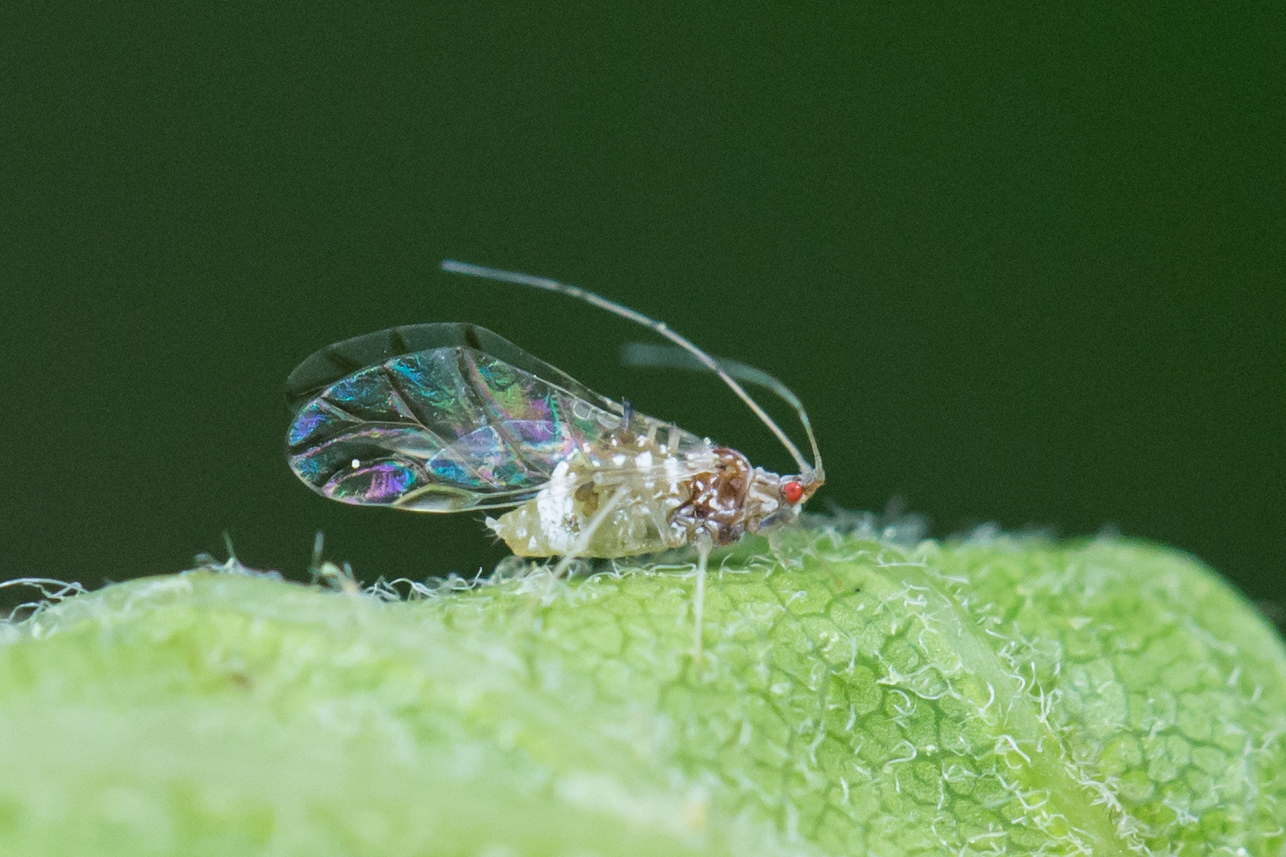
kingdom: Animalia
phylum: Arthropoda
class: Insecta
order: Hemiptera
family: Aphididae
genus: Drepanaphis
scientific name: Drepanaphis acerifoliae
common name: Painted maple aphid
